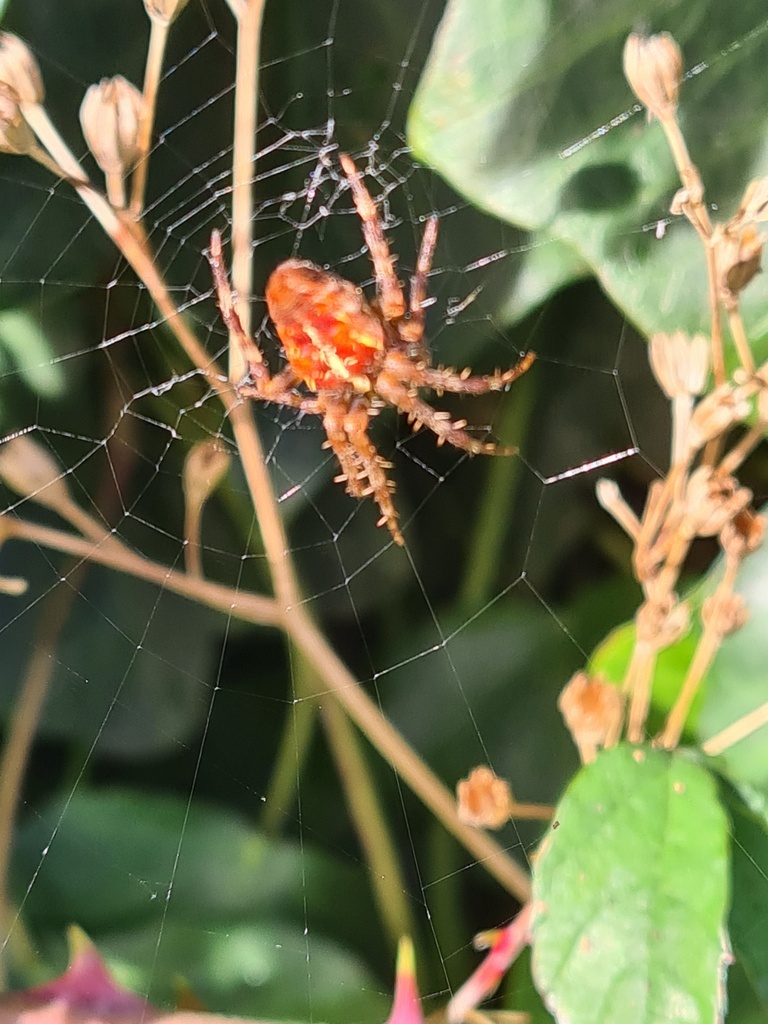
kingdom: Animalia
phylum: Arthropoda
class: Arachnida
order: Araneae
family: Araneidae
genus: Araneus
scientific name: Araneus diadematus
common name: Cross orbweaver
